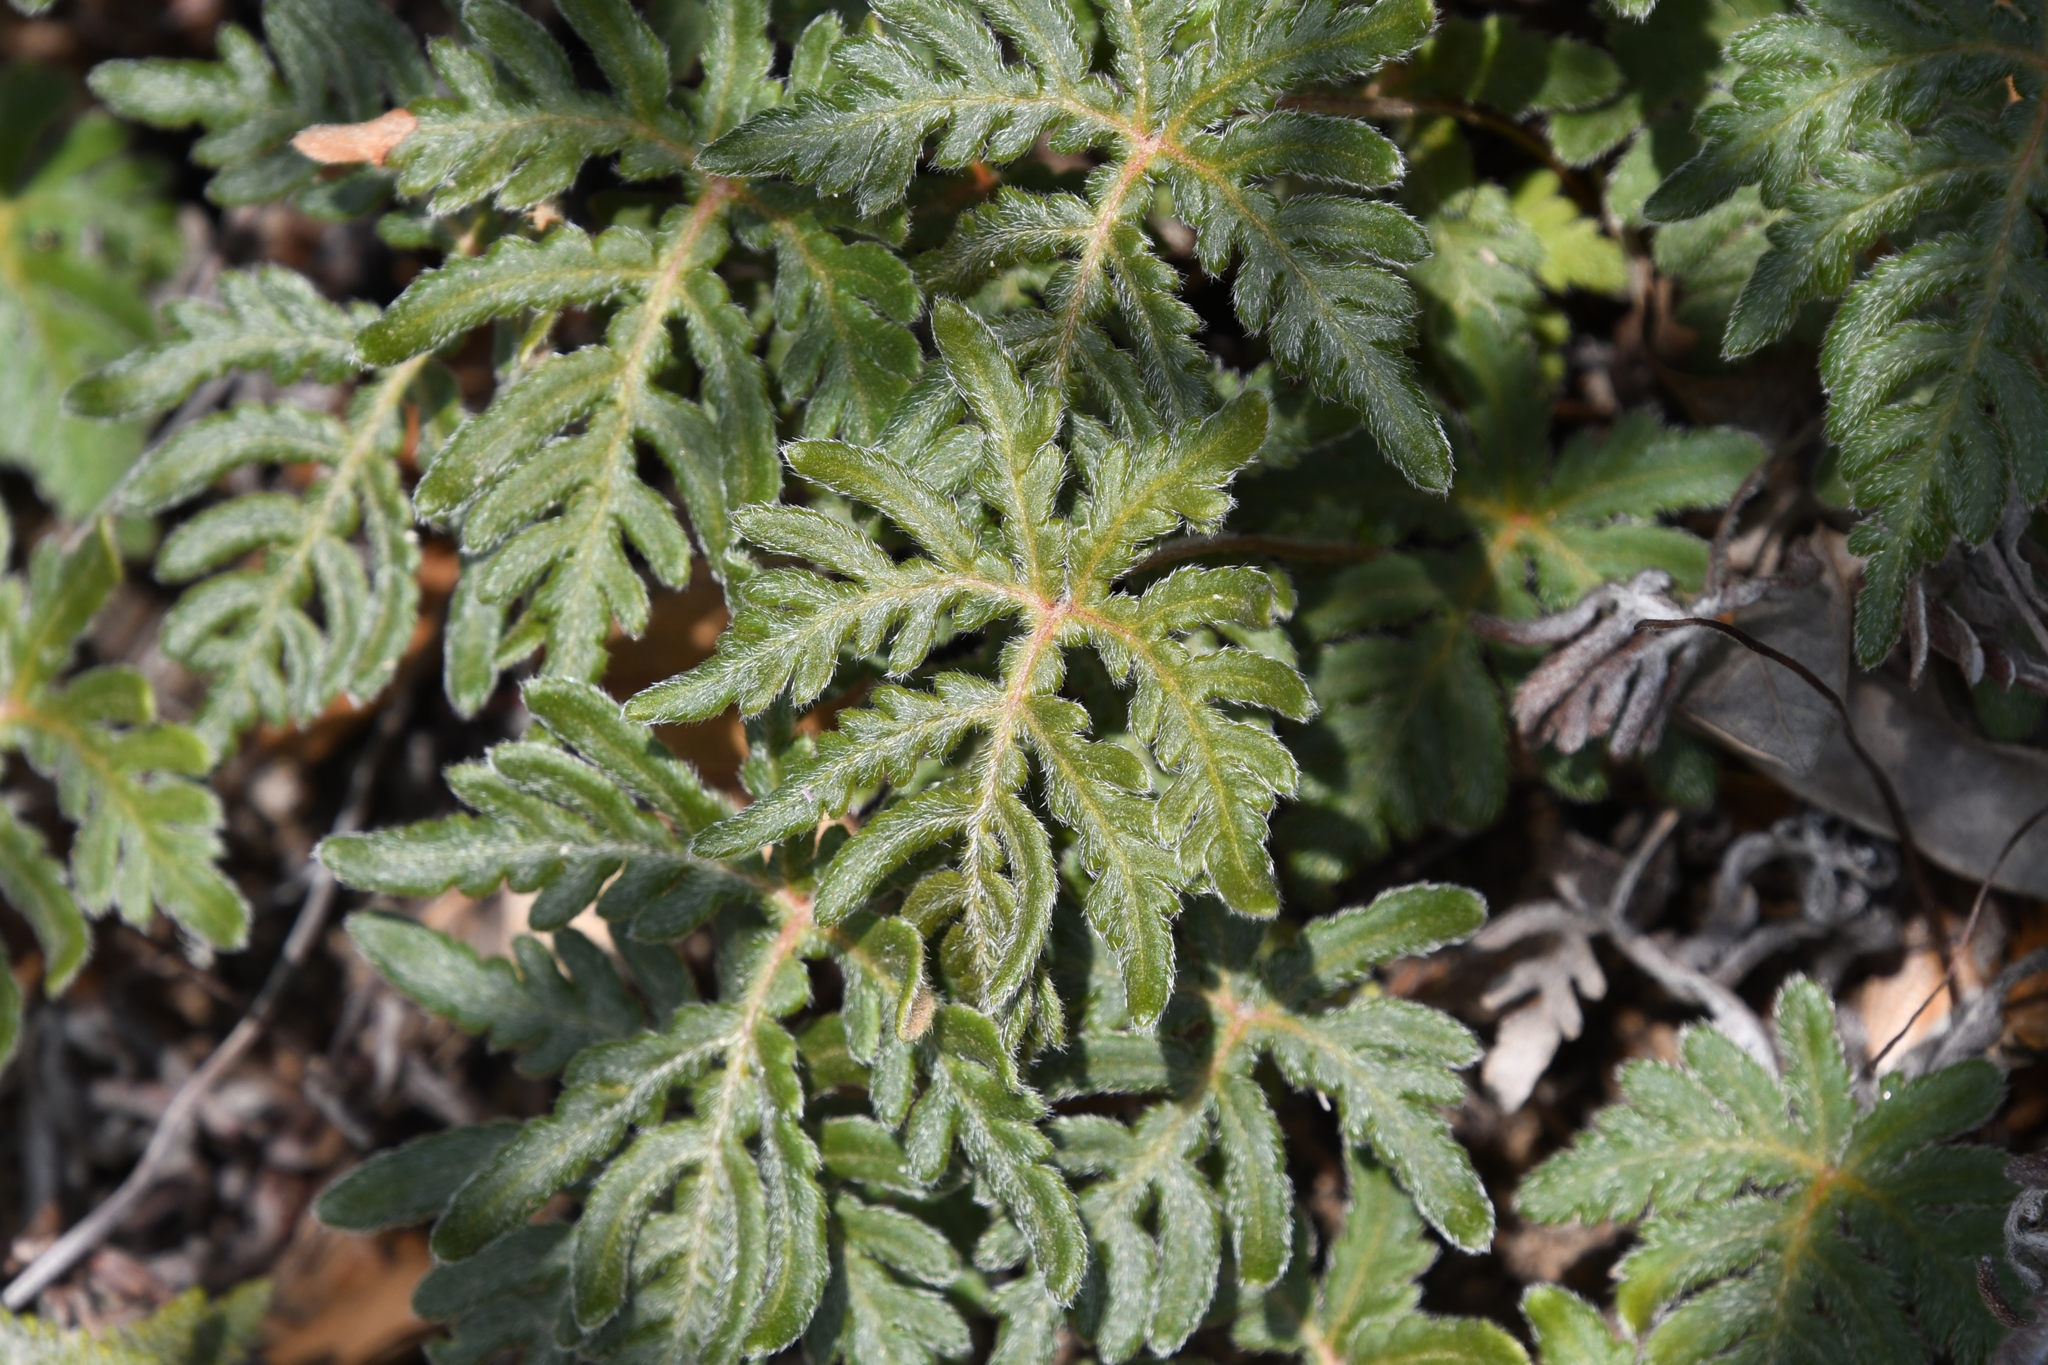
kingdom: Plantae
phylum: Tracheophyta
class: Polypodiopsida
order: Polypodiales
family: Pteridaceae
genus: Bommeria
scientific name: Bommeria hispida
